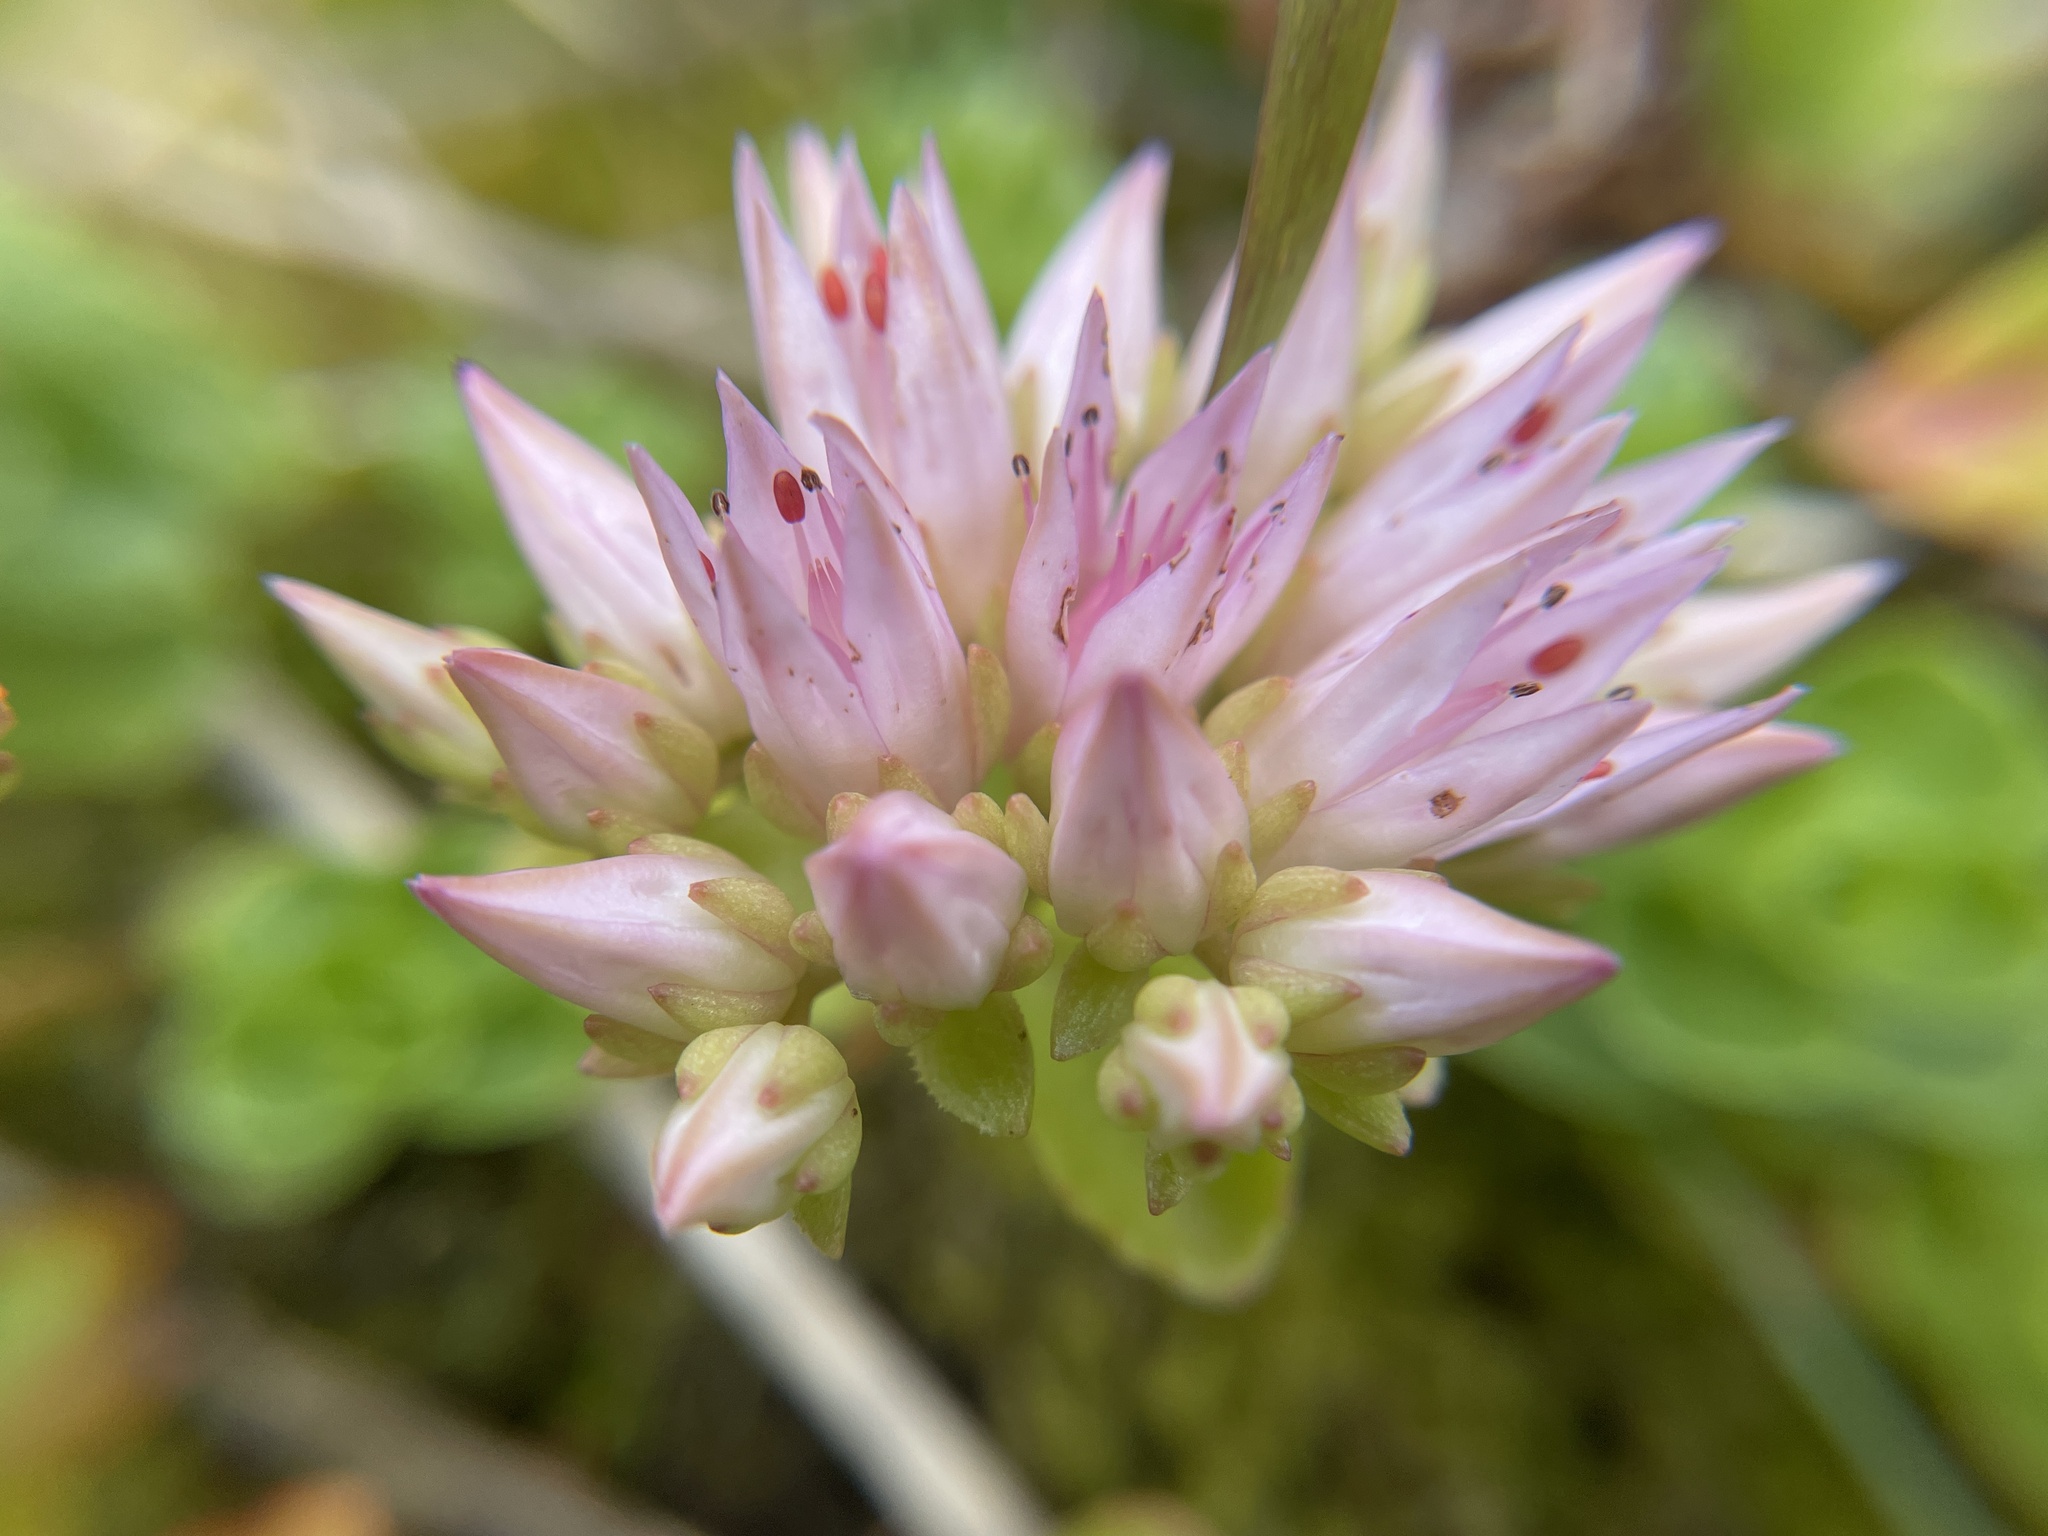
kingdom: Plantae
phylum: Tracheophyta
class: Magnoliopsida
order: Saxifragales
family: Crassulaceae
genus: Phedimus
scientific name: Phedimus spurius
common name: Caucasian stonecrop
